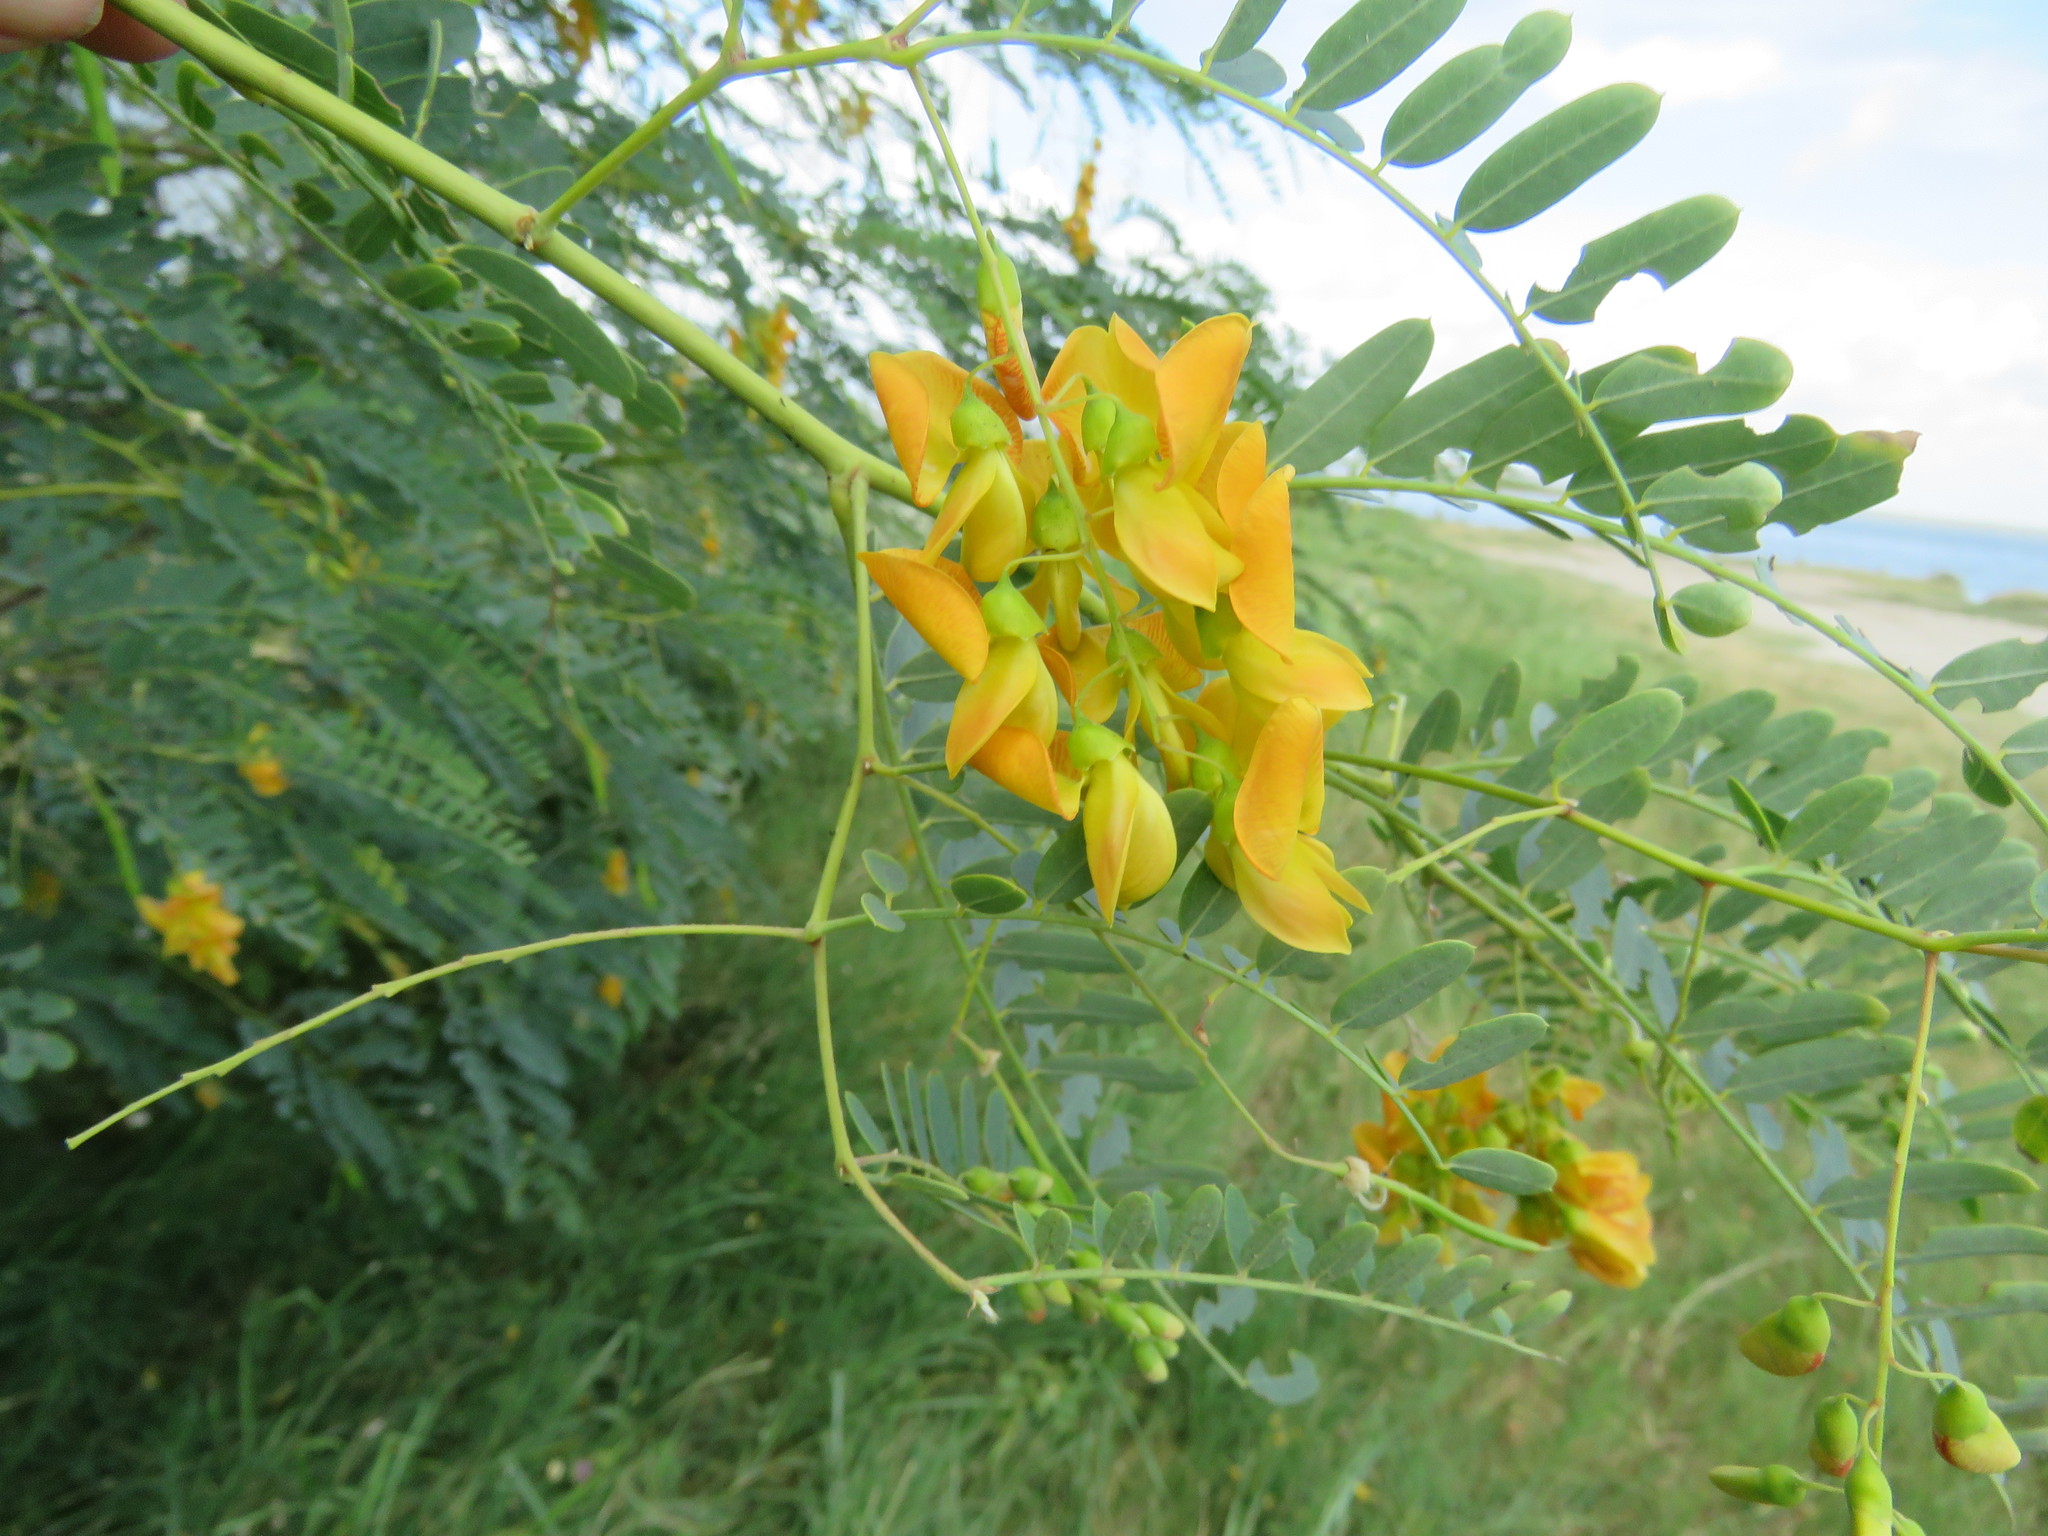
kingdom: Plantae
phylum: Tracheophyta
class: Magnoliopsida
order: Fabales
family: Fabaceae
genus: Sesbania
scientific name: Sesbania drummondii
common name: Poison-bean
